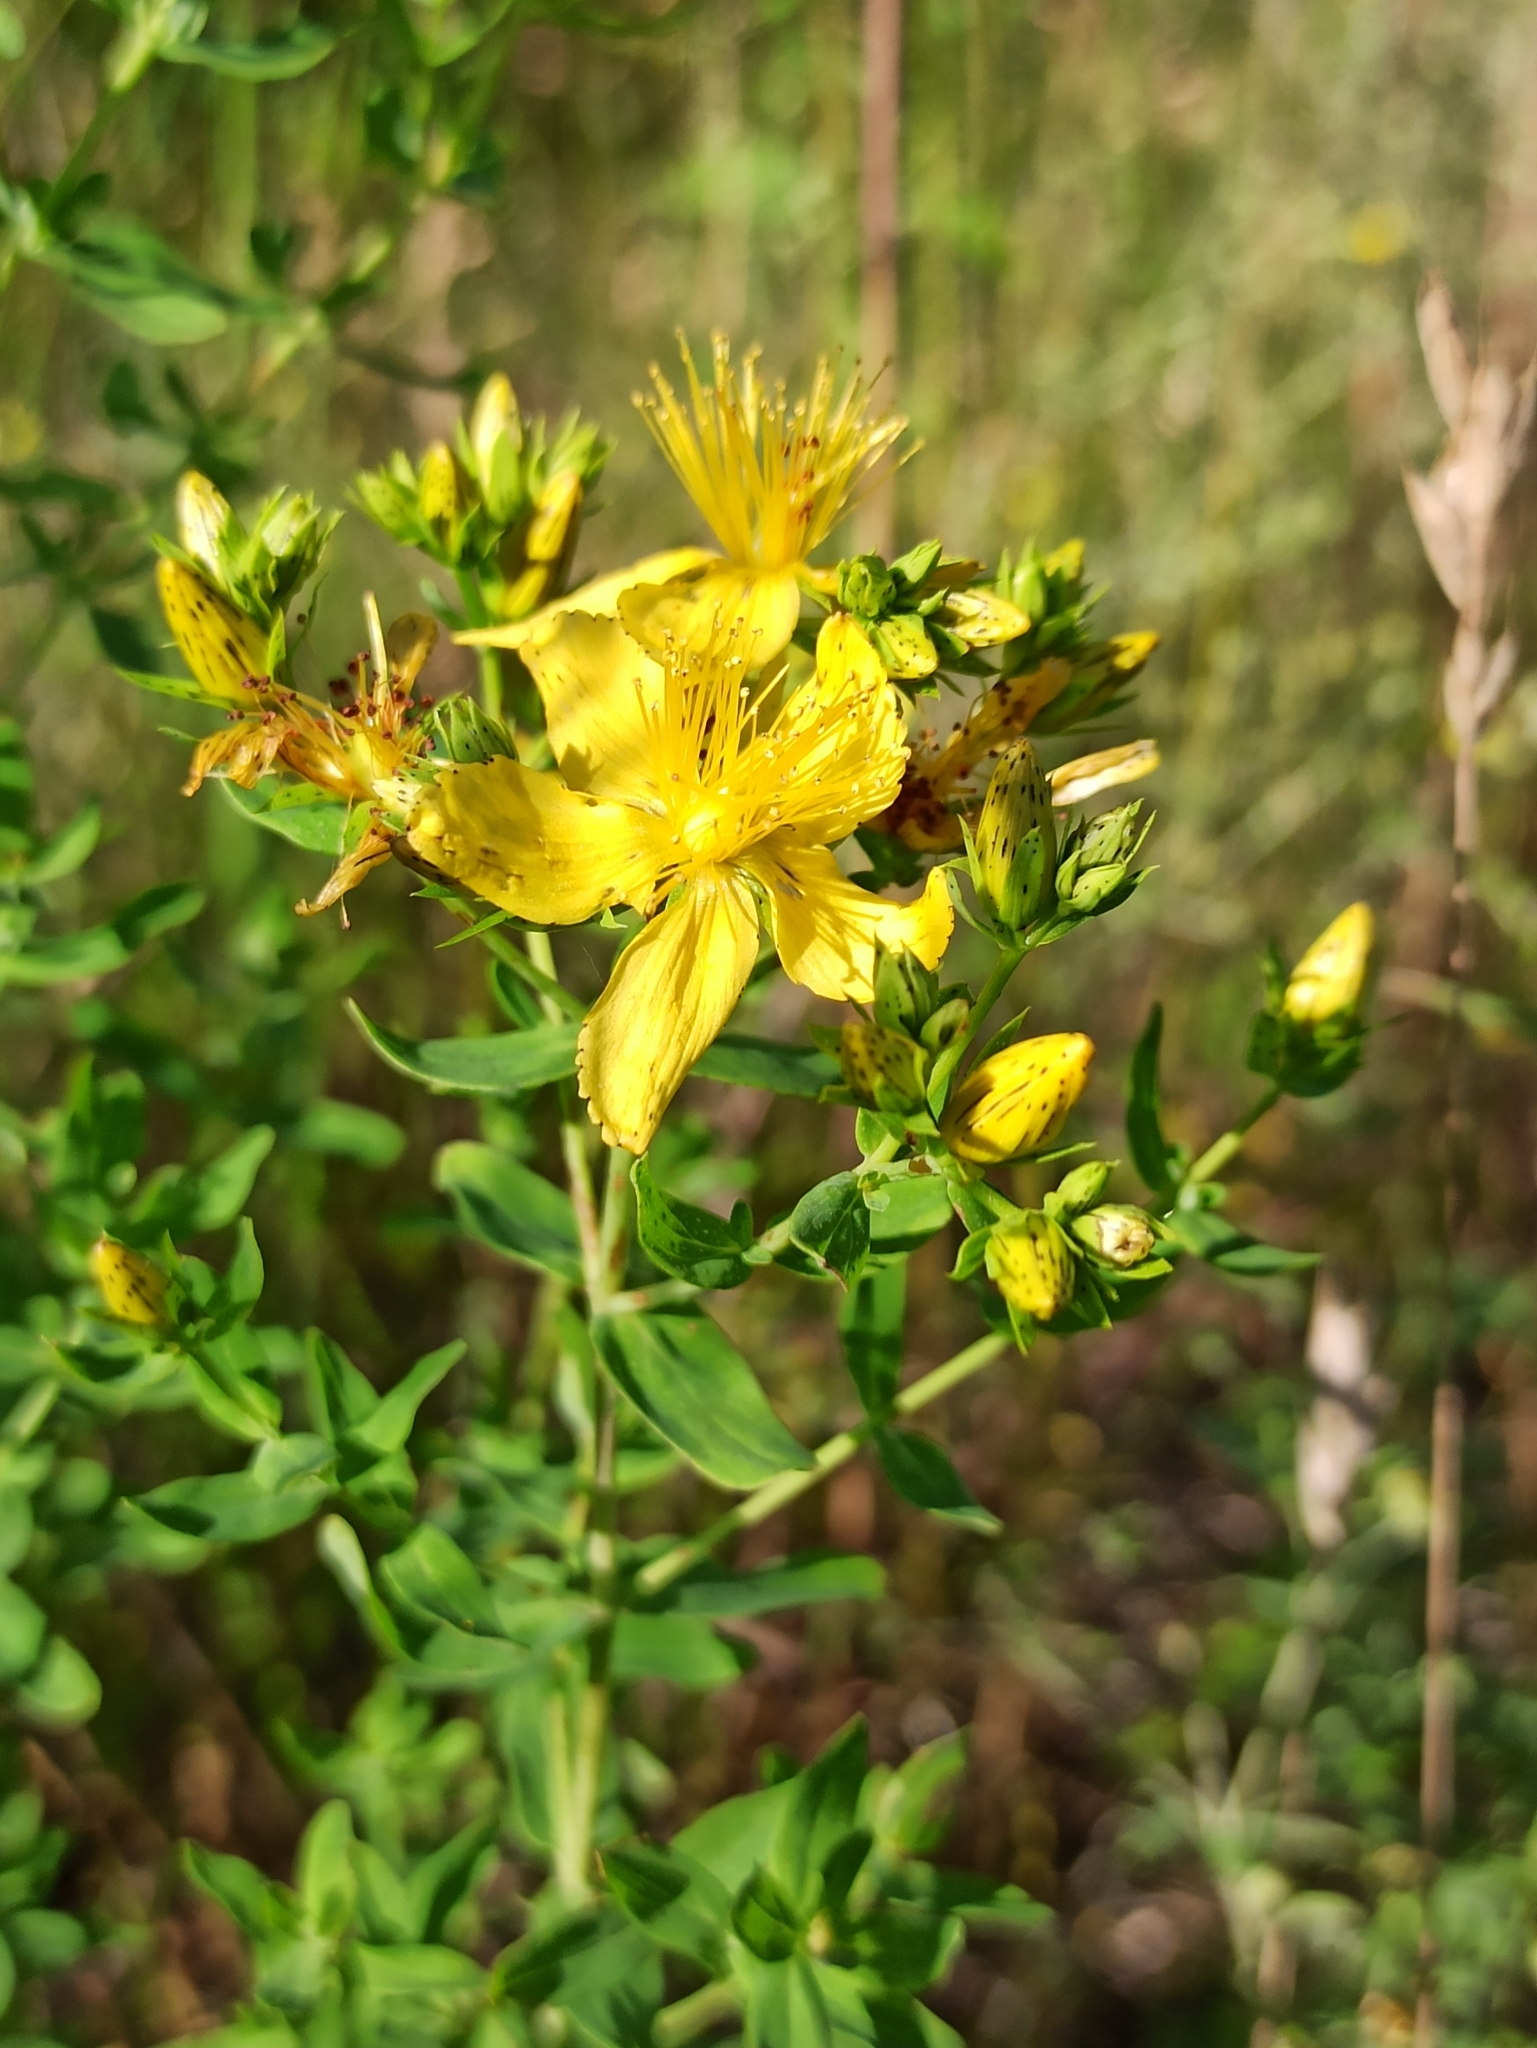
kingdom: Plantae
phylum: Tracheophyta
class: Magnoliopsida
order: Malpighiales
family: Hypericaceae
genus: Hypericum
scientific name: Hypericum perforatum
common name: Common st. johnswort
